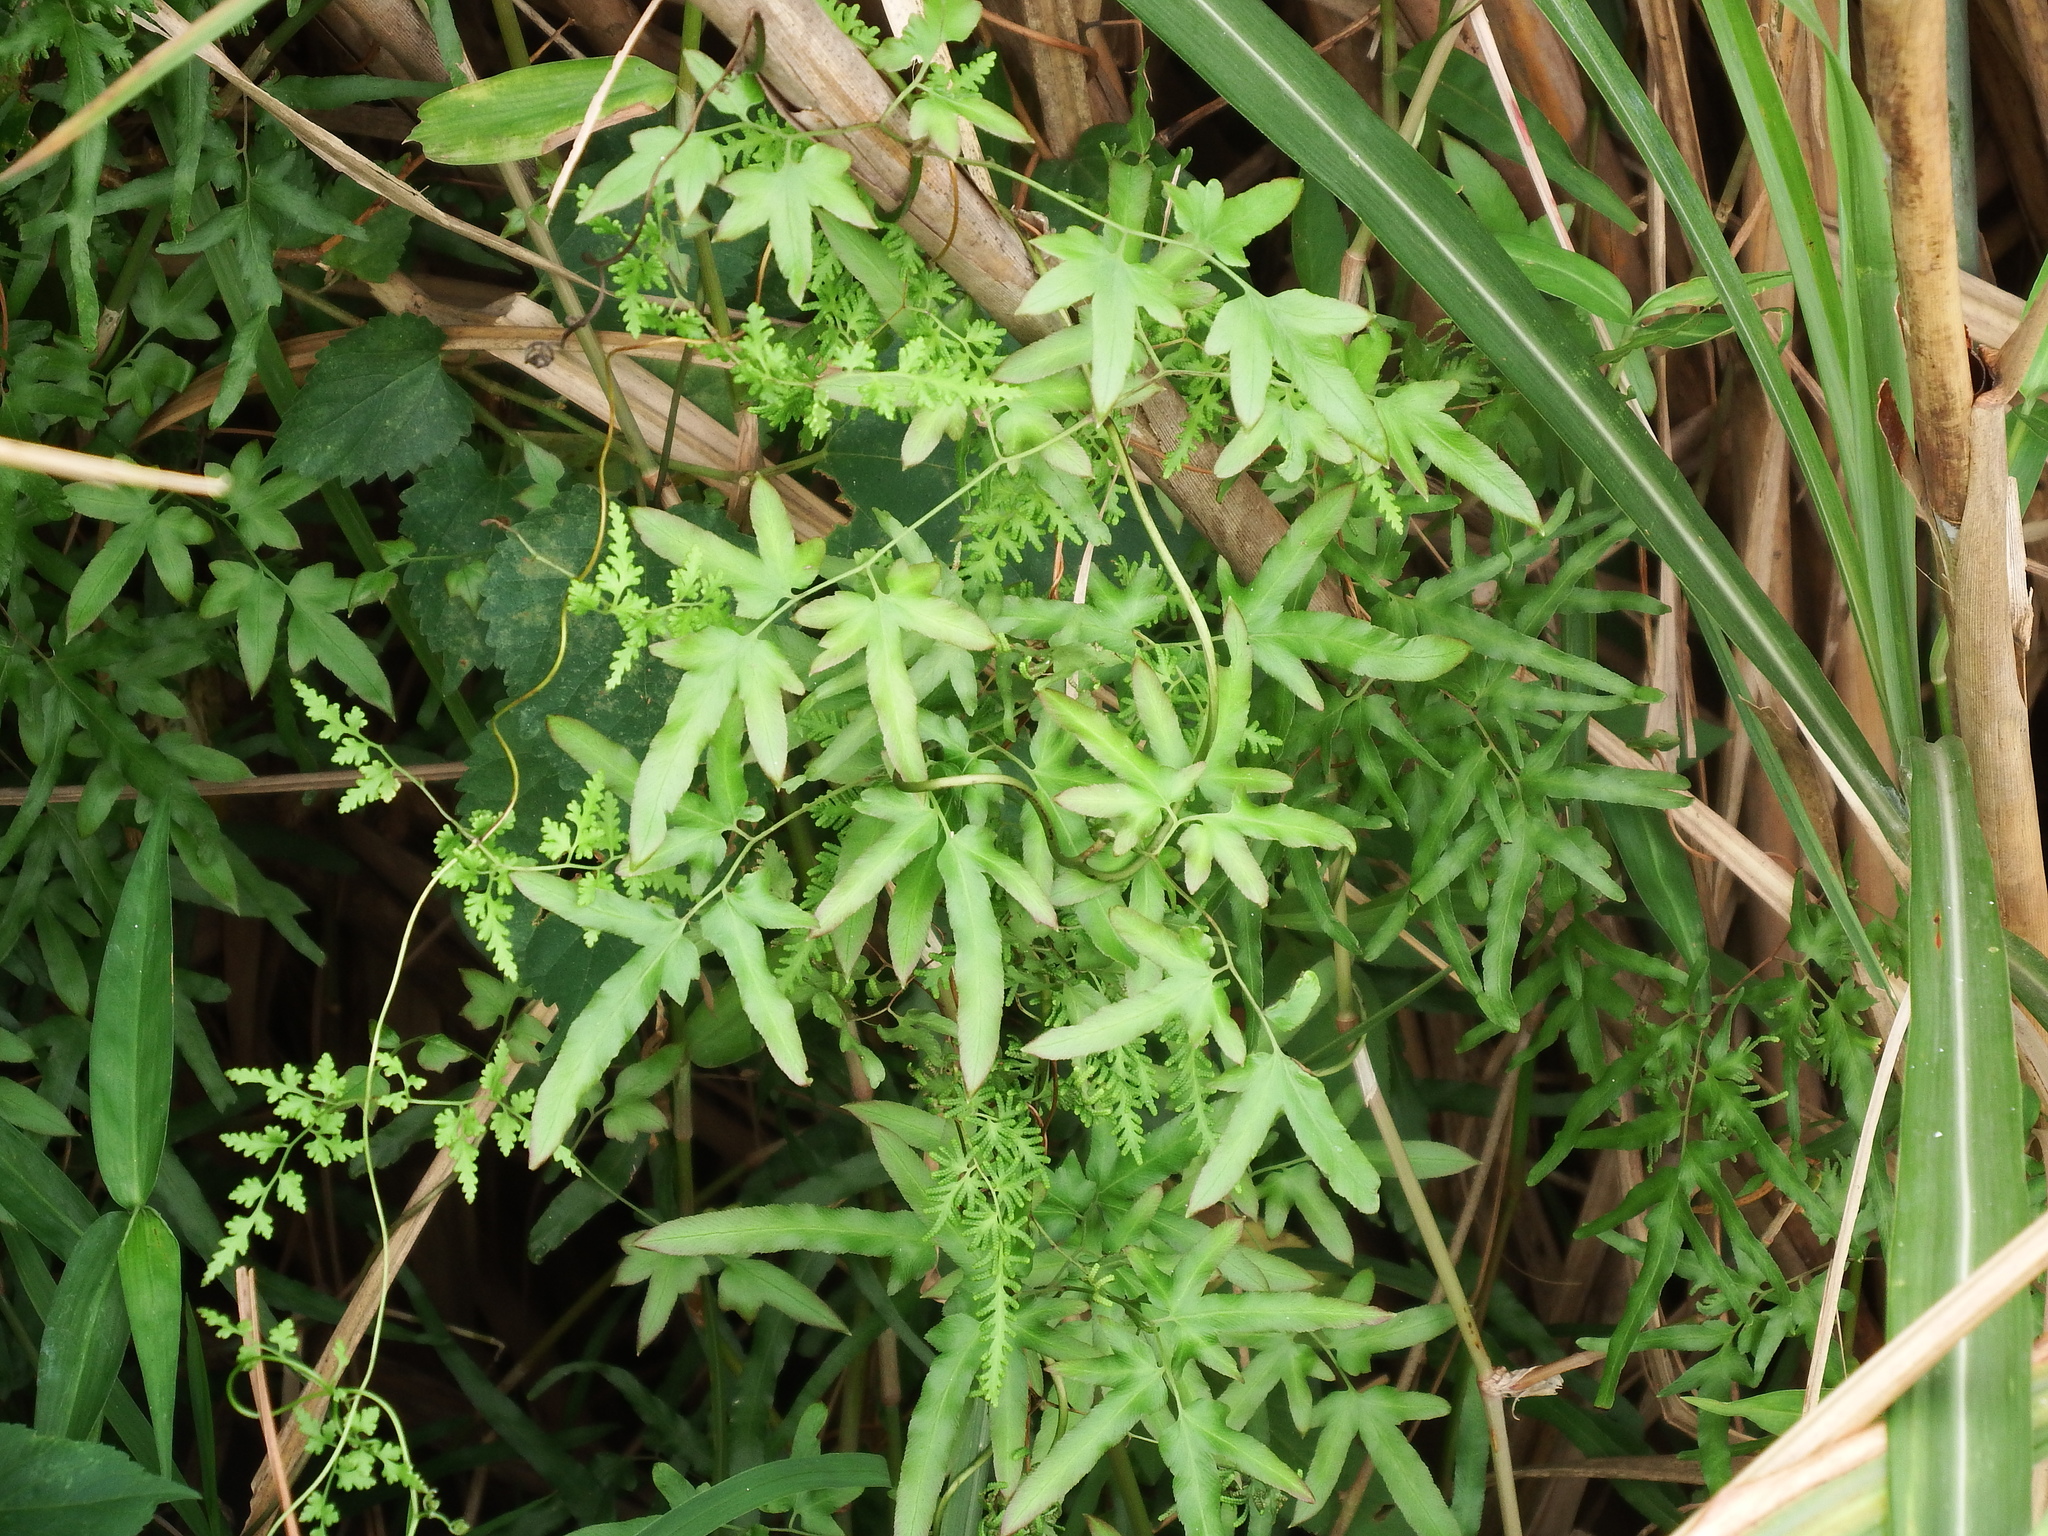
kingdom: Plantae
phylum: Tracheophyta
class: Polypodiopsida
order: Schizaeales
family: Lygodiaceae
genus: Lygodium
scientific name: Lygodium japonicum
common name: Japanese climbing fern
